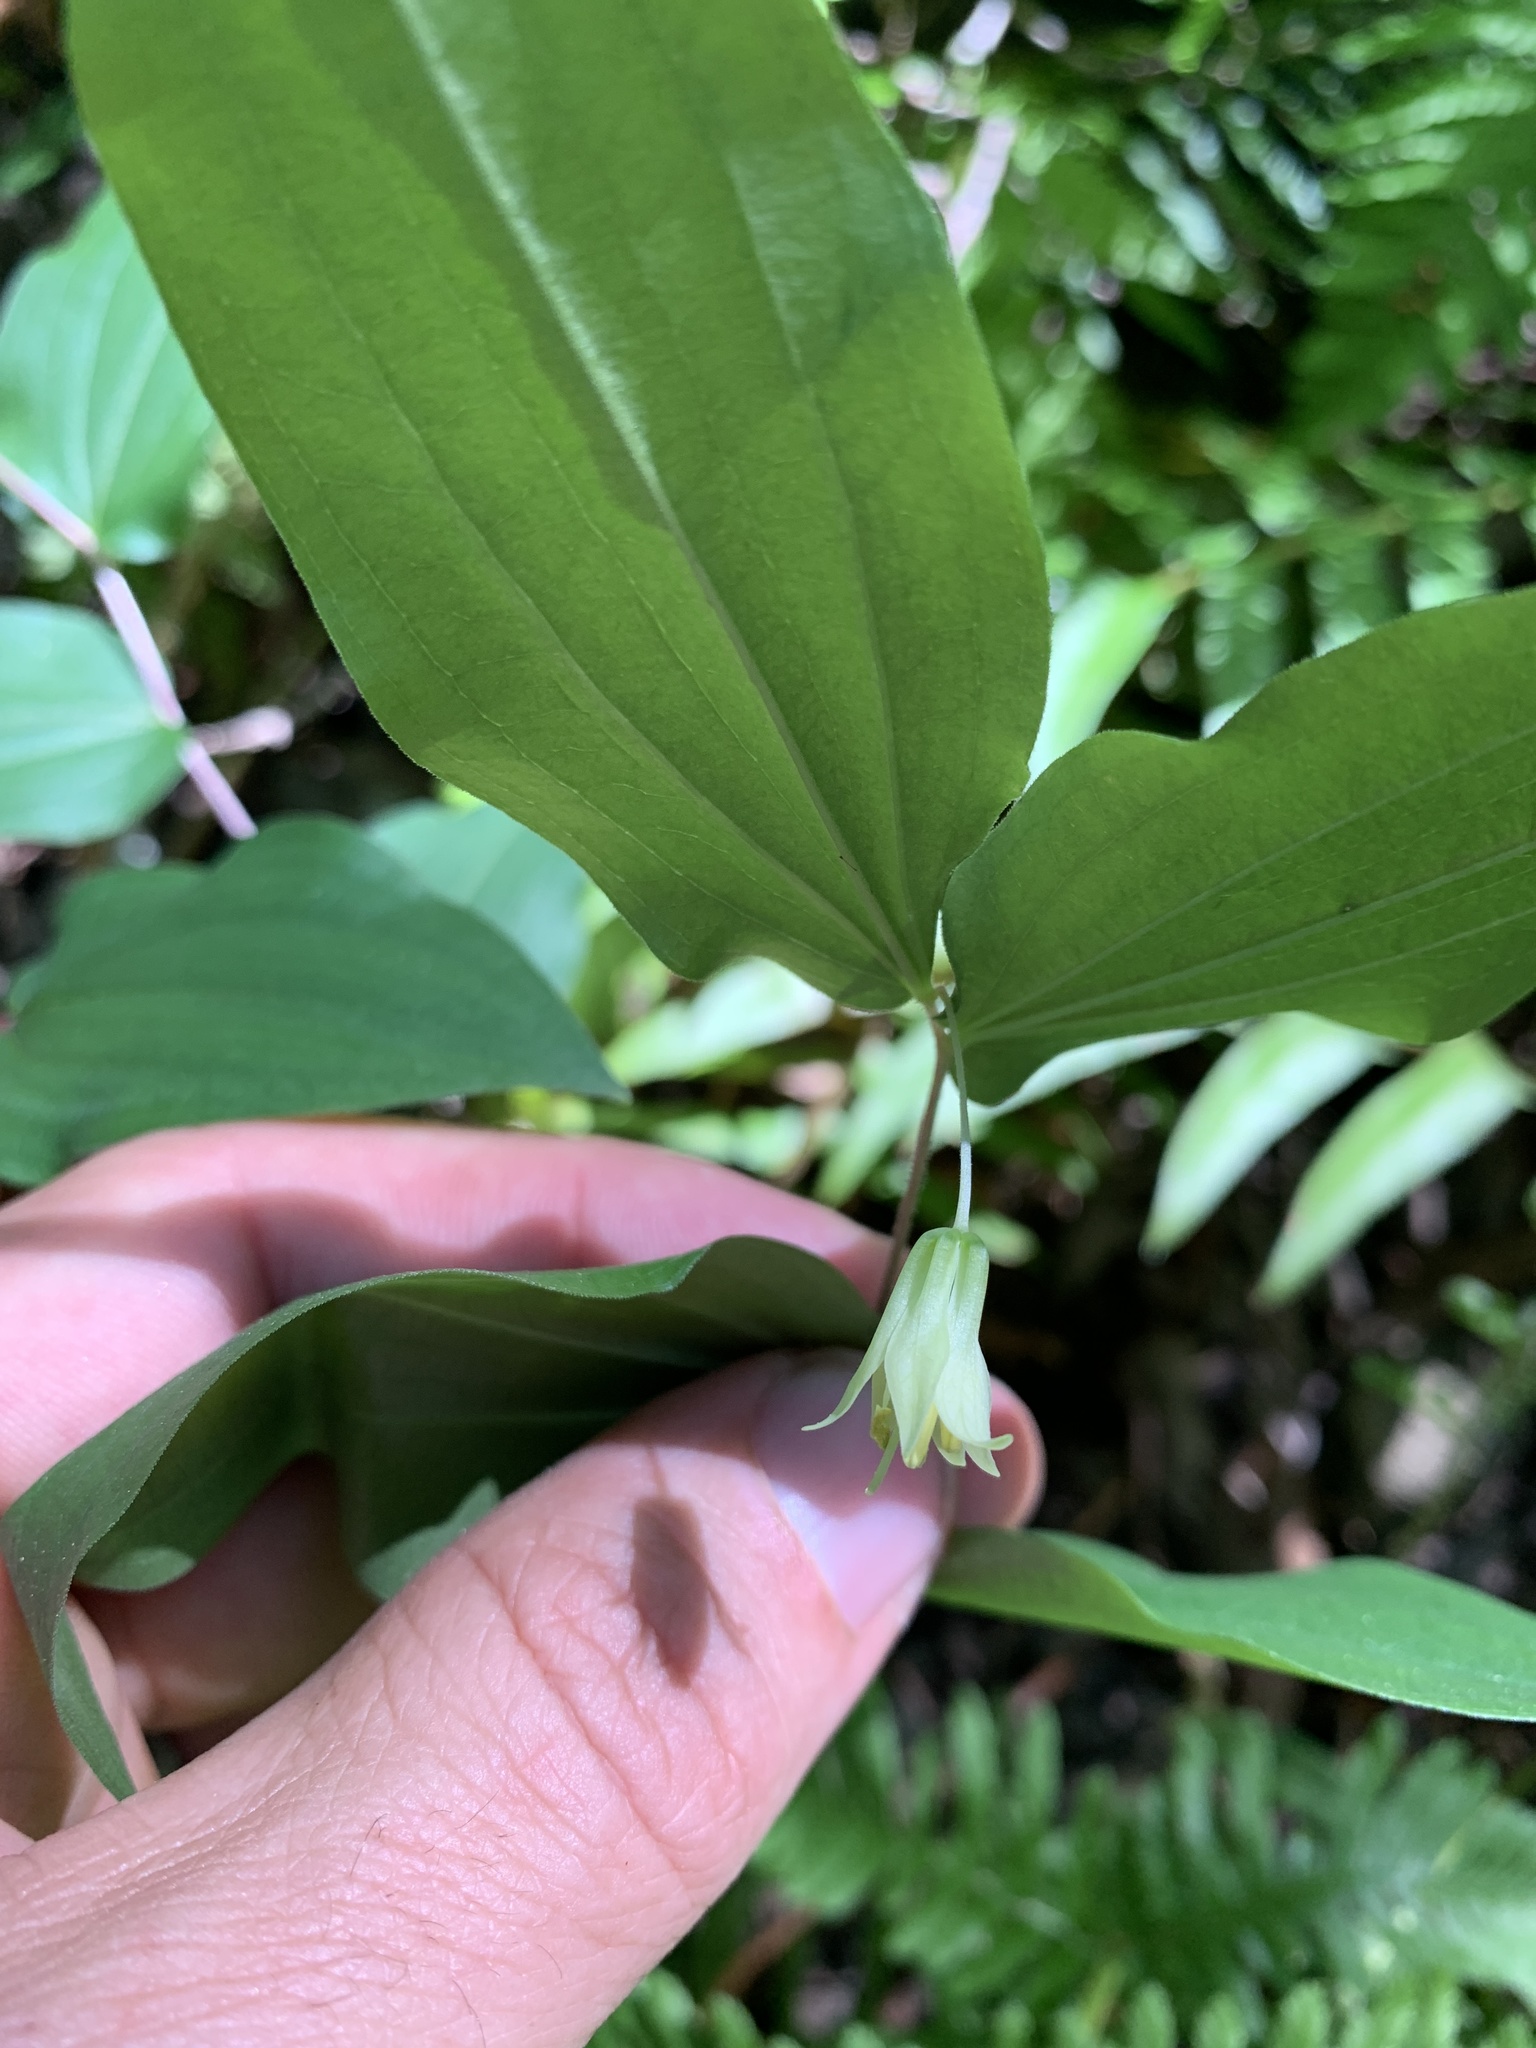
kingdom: Plantae
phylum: Tracheophyta
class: Liliopsida
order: Liliales
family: Liliaceae
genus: Prosartes
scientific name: Prosartes hookeri
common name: Fairy-bells
